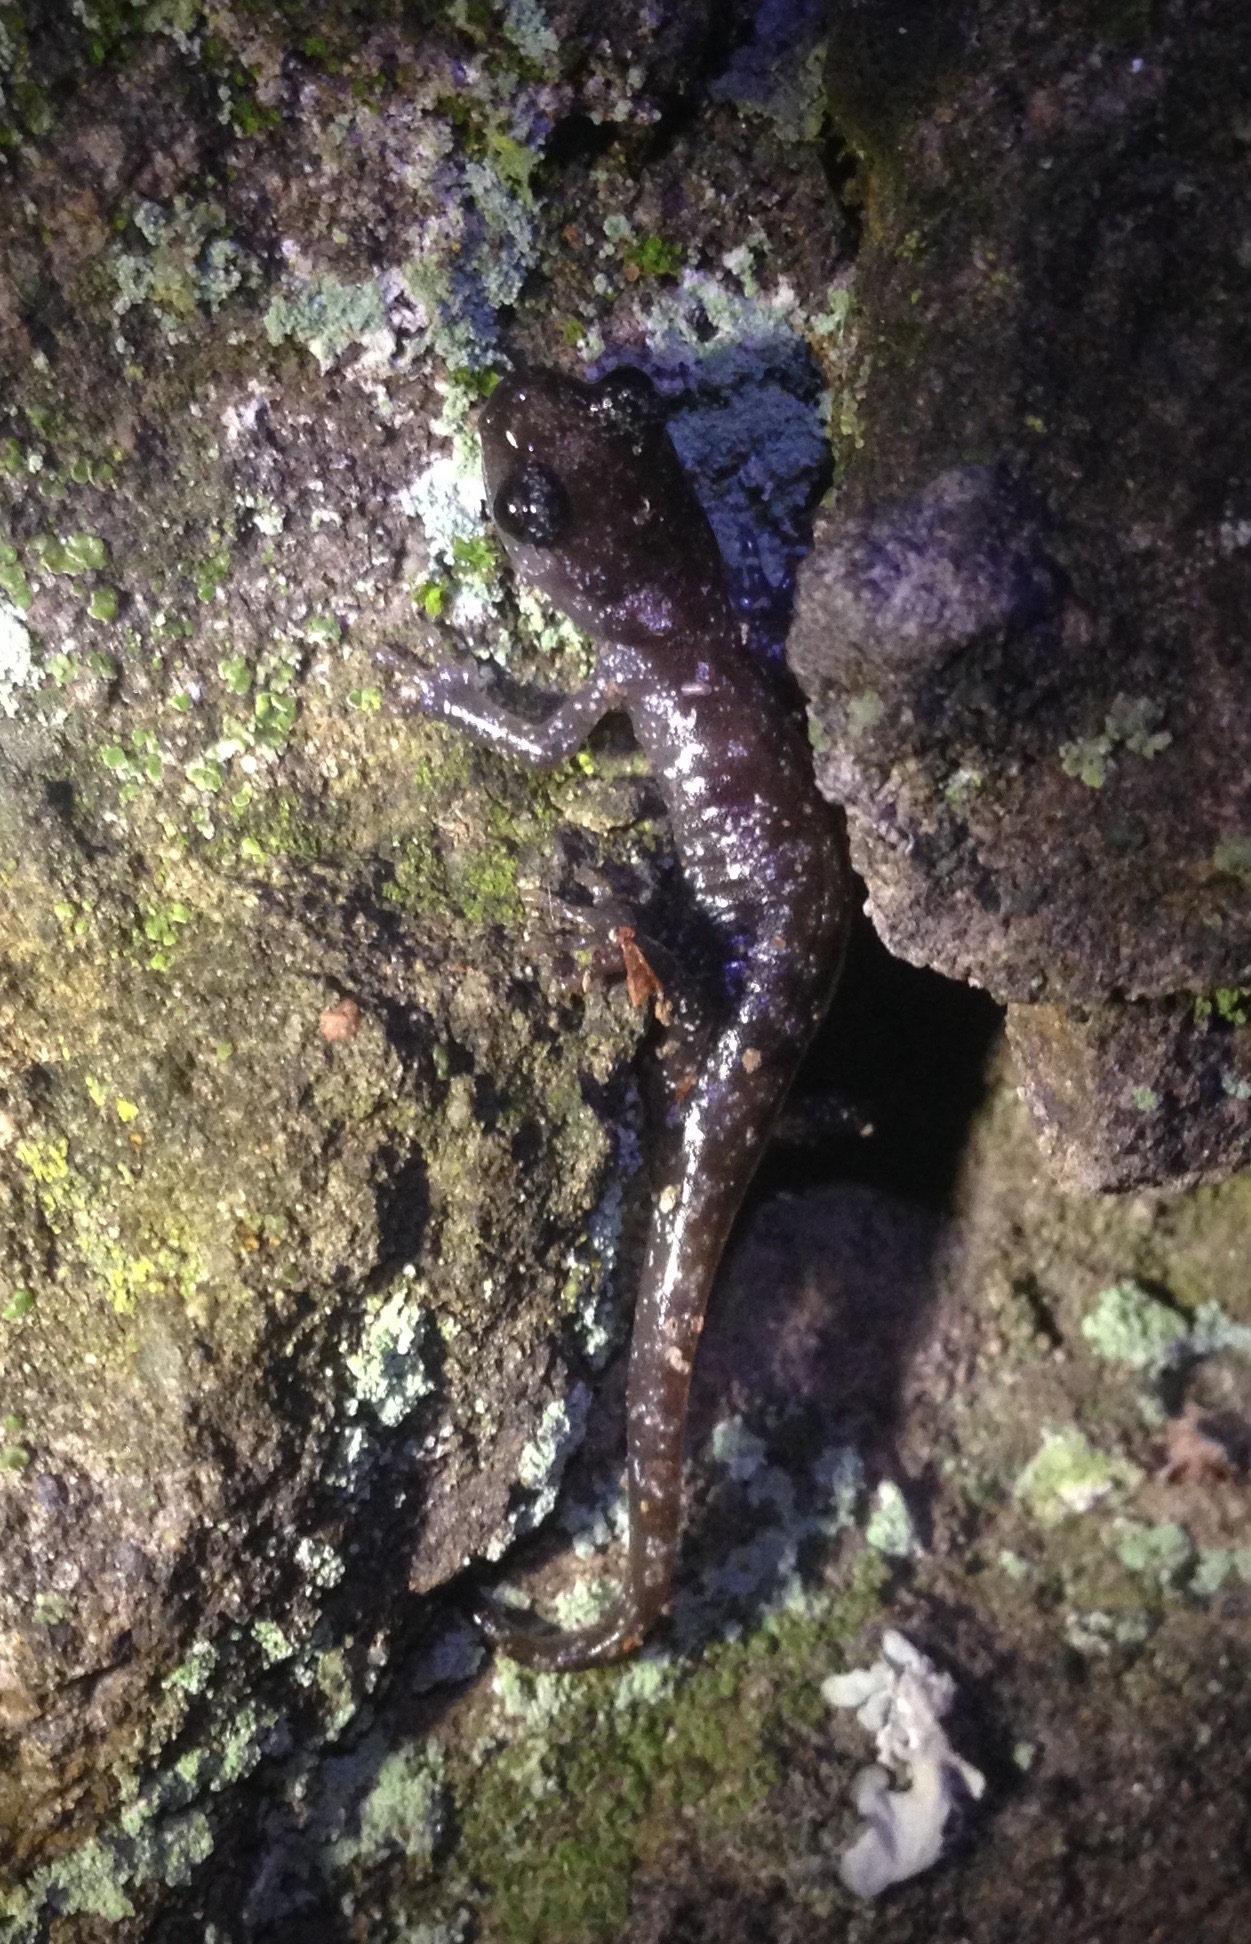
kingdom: Animalia
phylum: Chordata
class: Amphibia
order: Caudata
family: Plethodontidae
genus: Aneides
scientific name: Aneides lugubris
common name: Arboreal salamander
